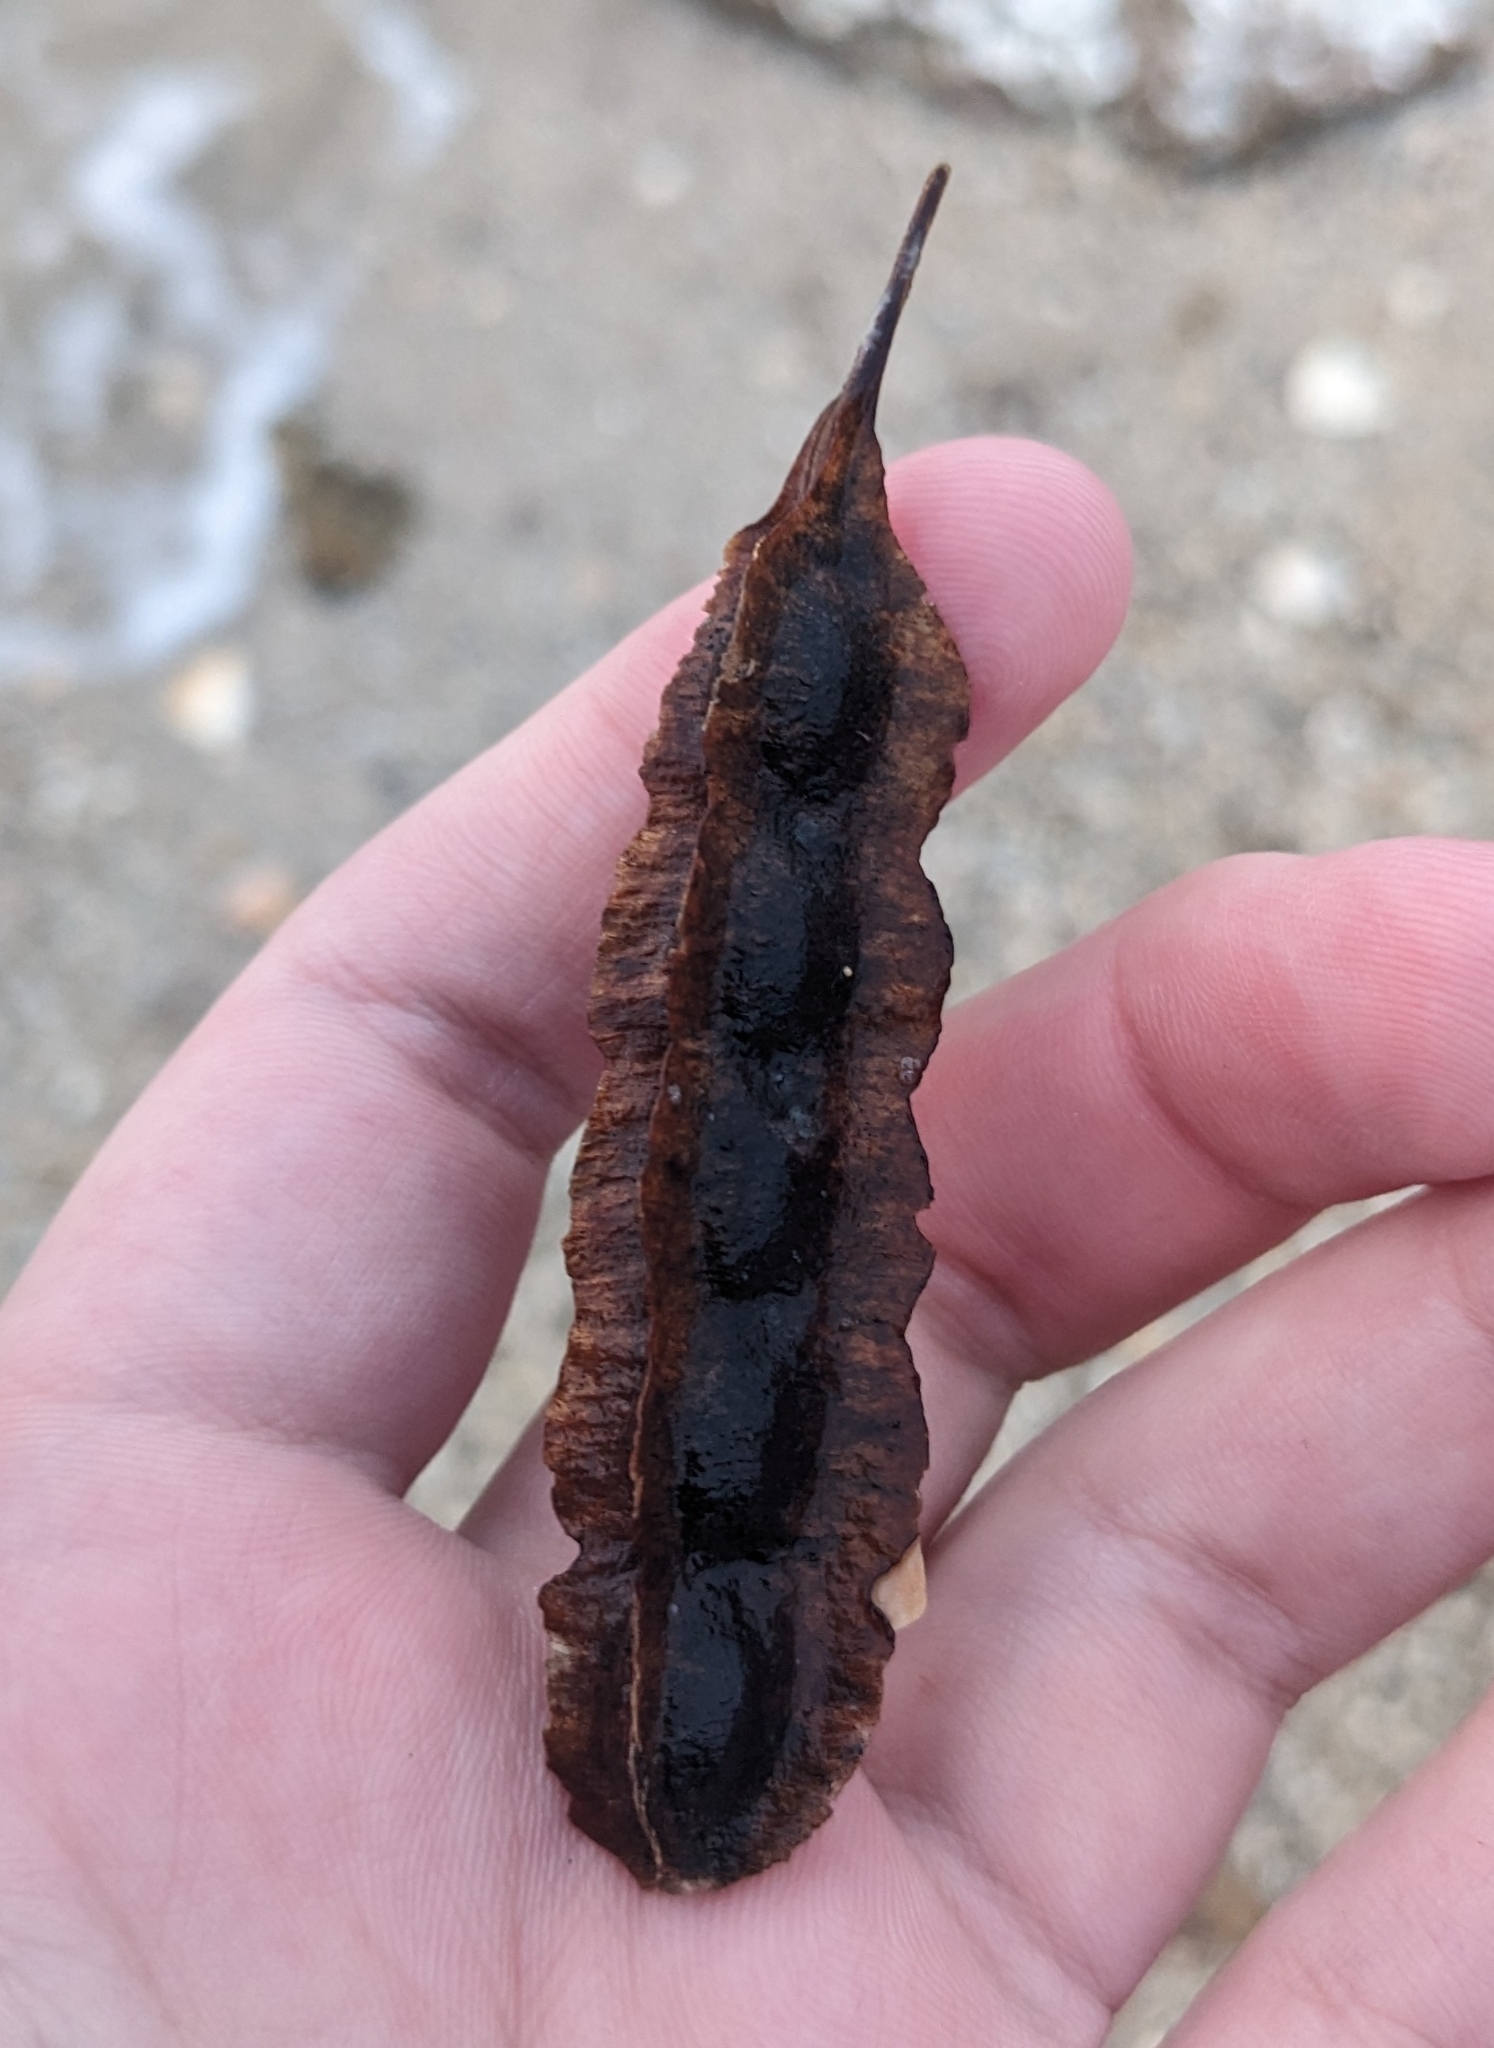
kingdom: Plantae
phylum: Tracheophyta
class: Magnoliopsida
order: Fabales
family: Fabaceae
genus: Sesbania
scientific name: Sesbania drummondii
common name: Poison-bean
